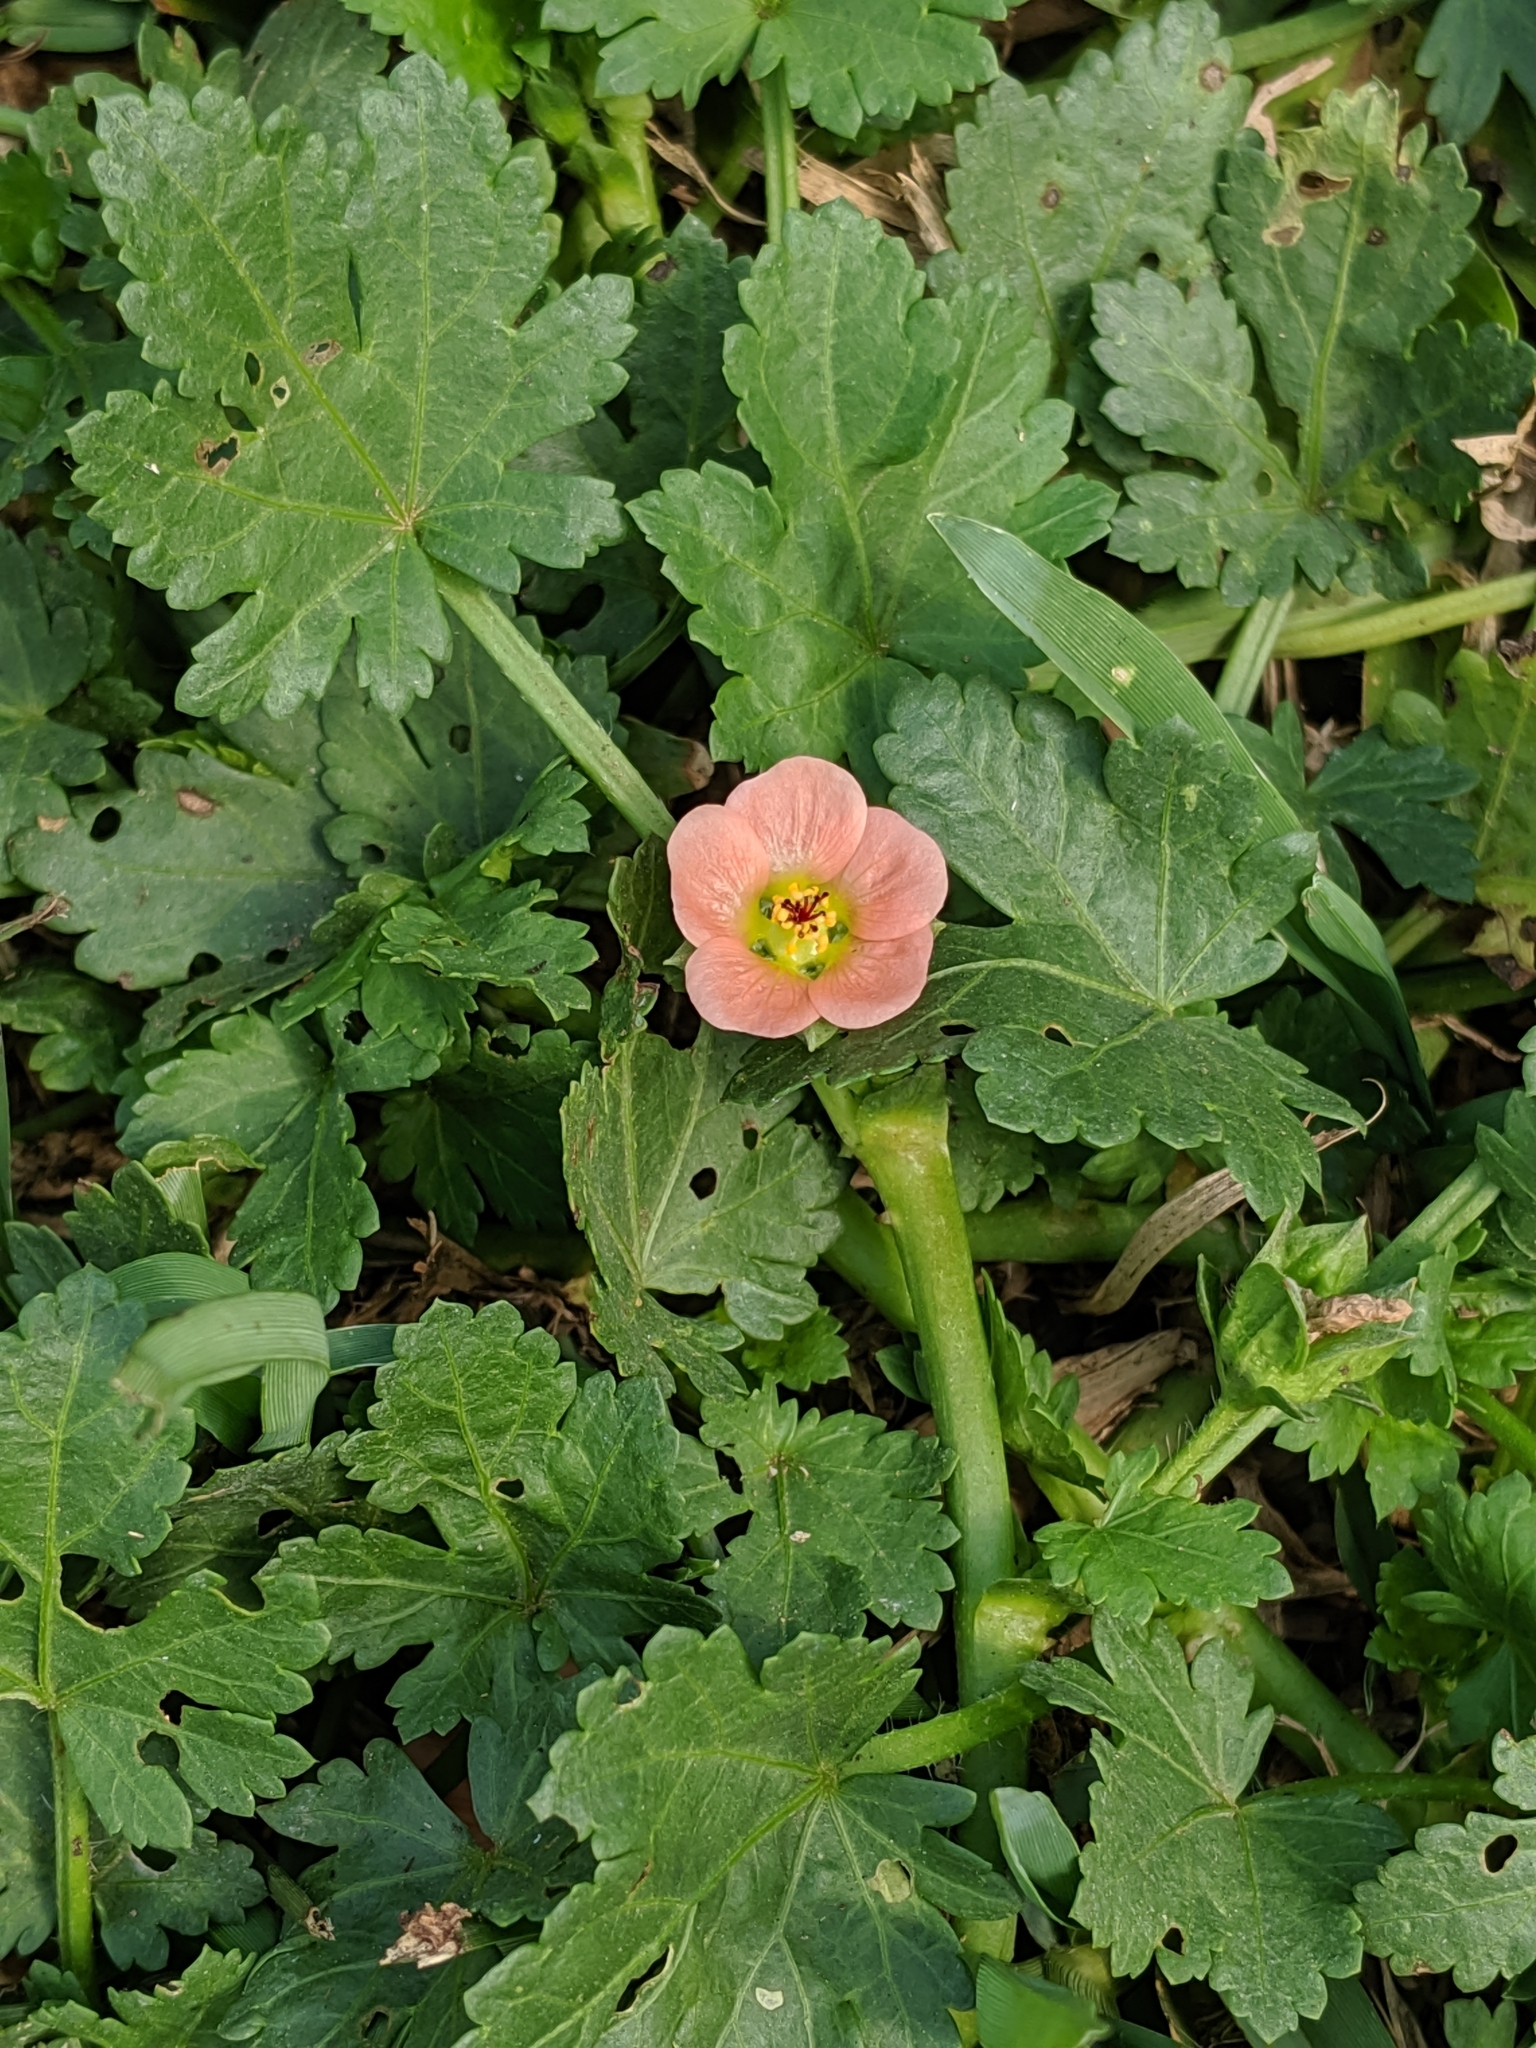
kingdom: Plantae
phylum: Tracheophyta
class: Magnoliopsida
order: Malvales
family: Malvaceae
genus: Modiola
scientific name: Modiola caroliniana
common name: Carolina bristlemallow
